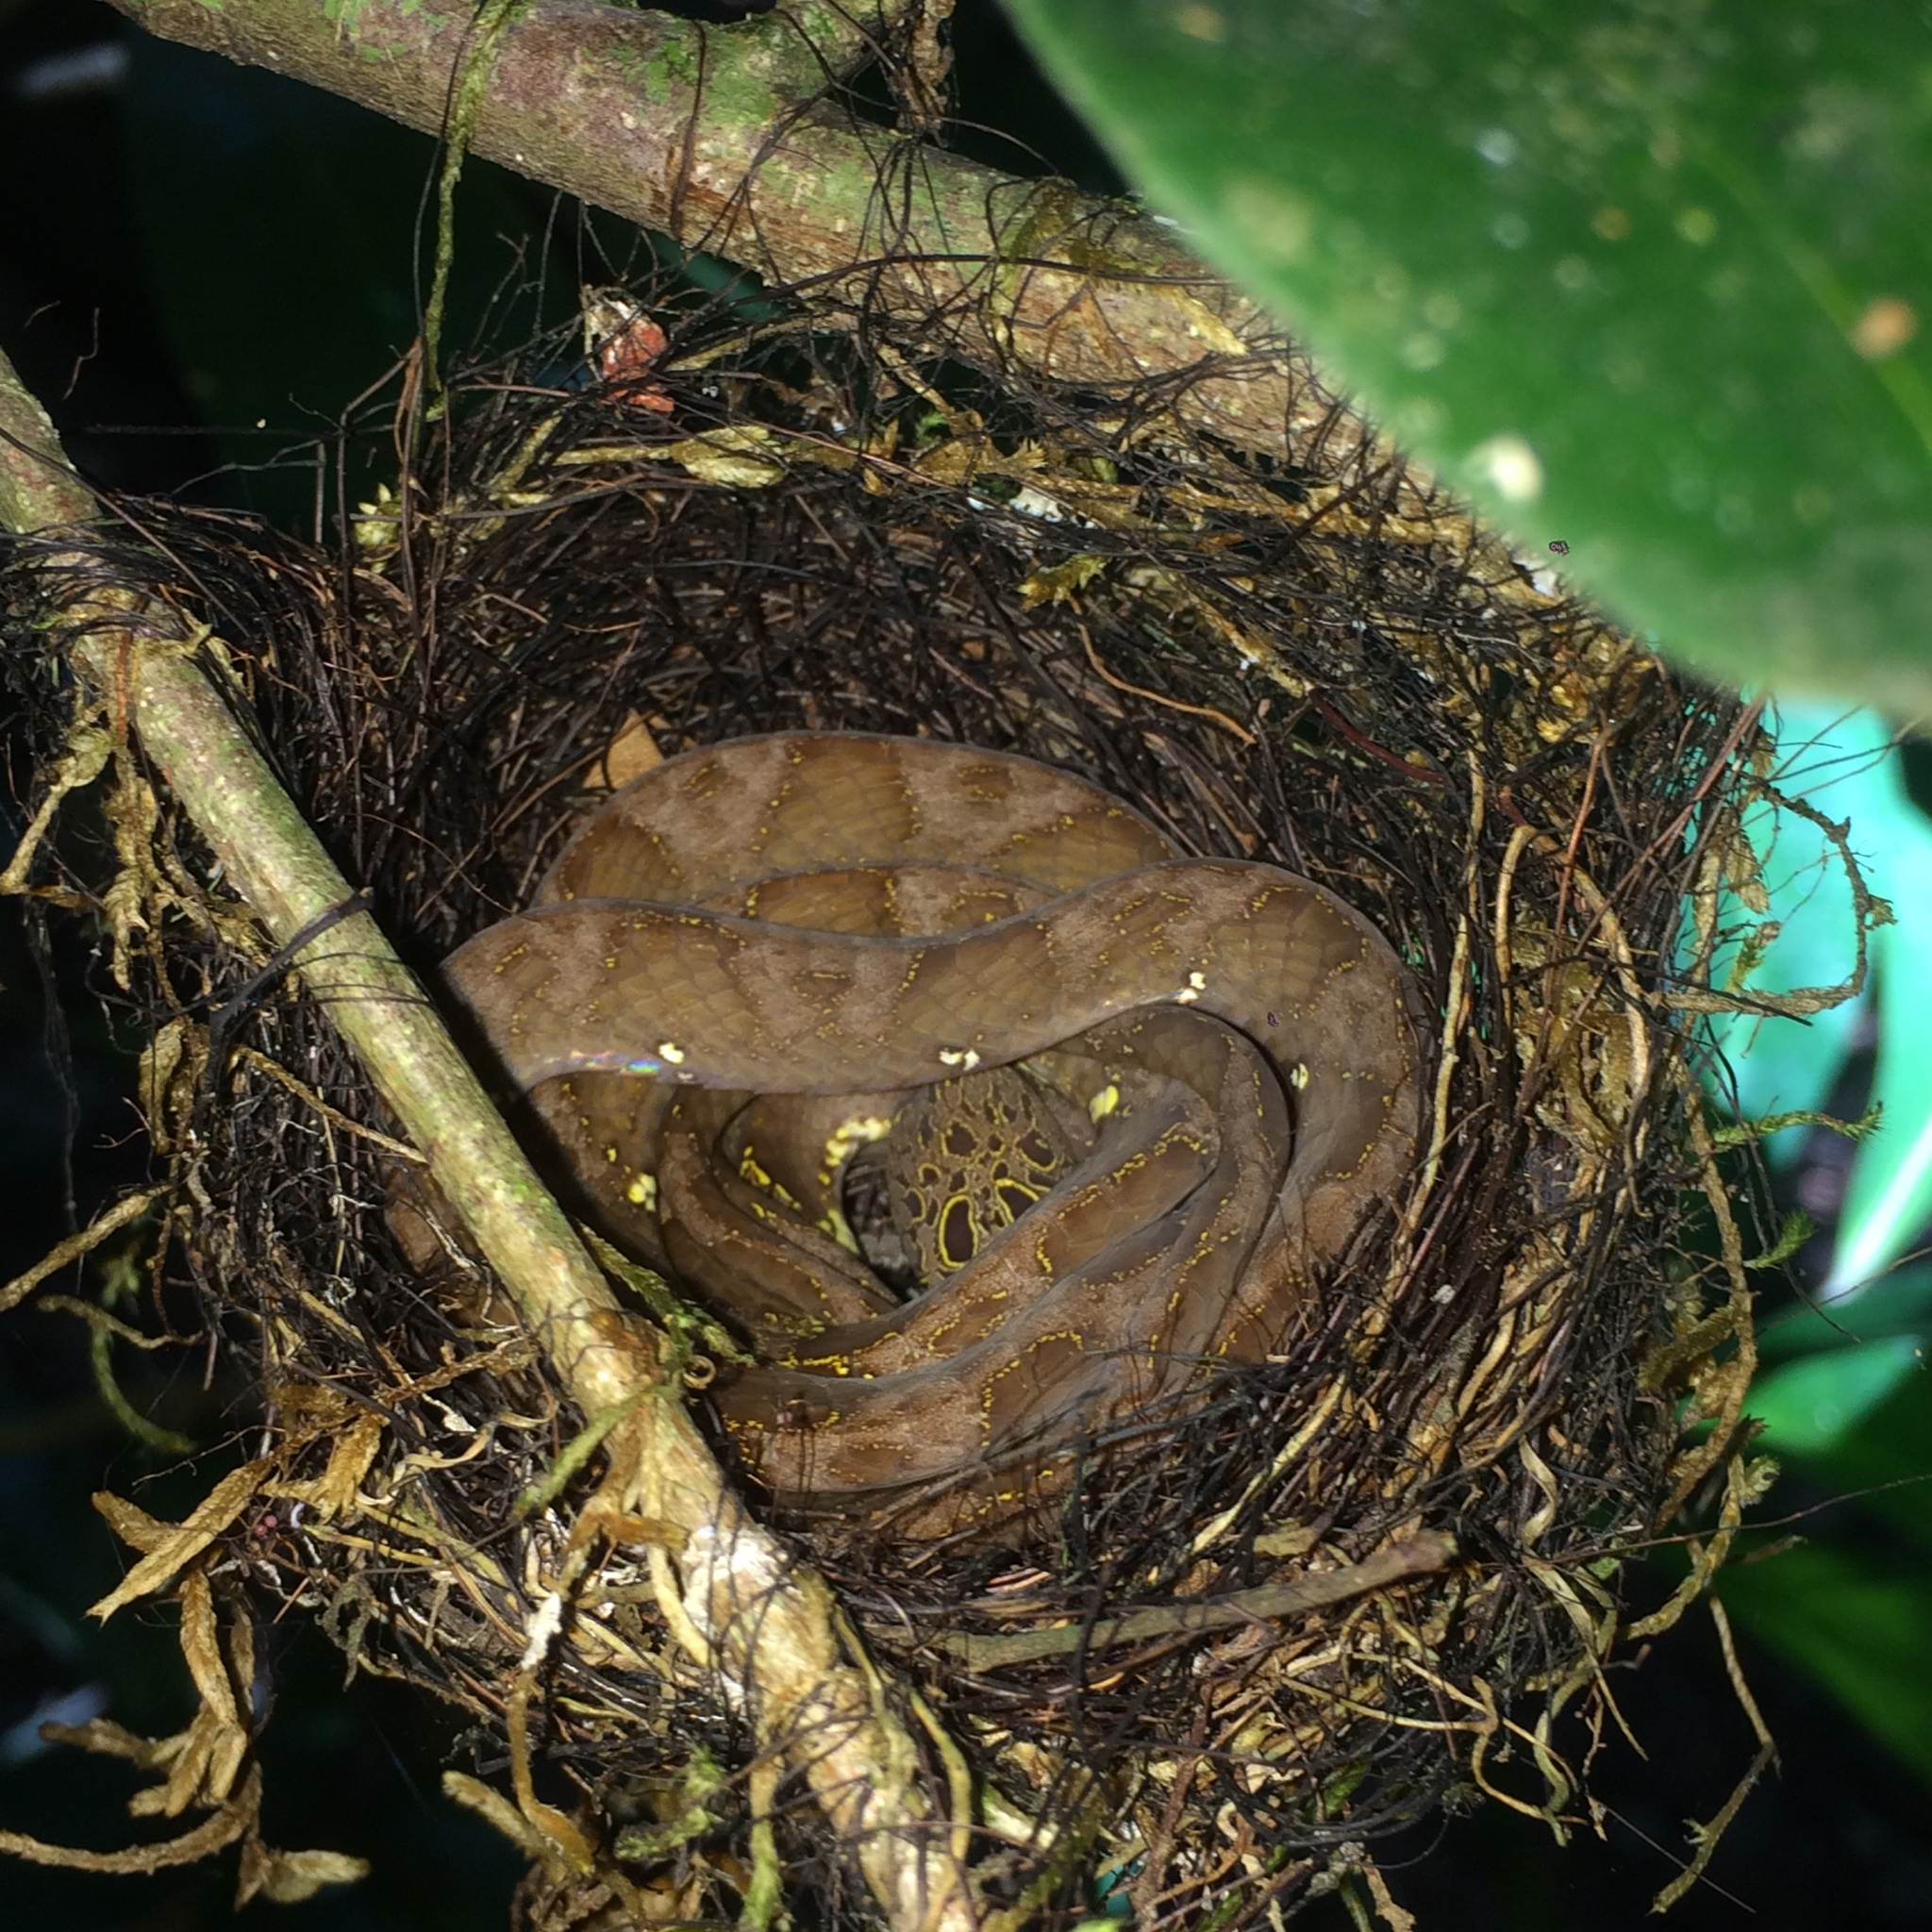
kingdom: Animalia
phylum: Chordata
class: Squamata
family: Colubridae
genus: Dipsas
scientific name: Dipsas indica
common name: Neotropical snail-eater
